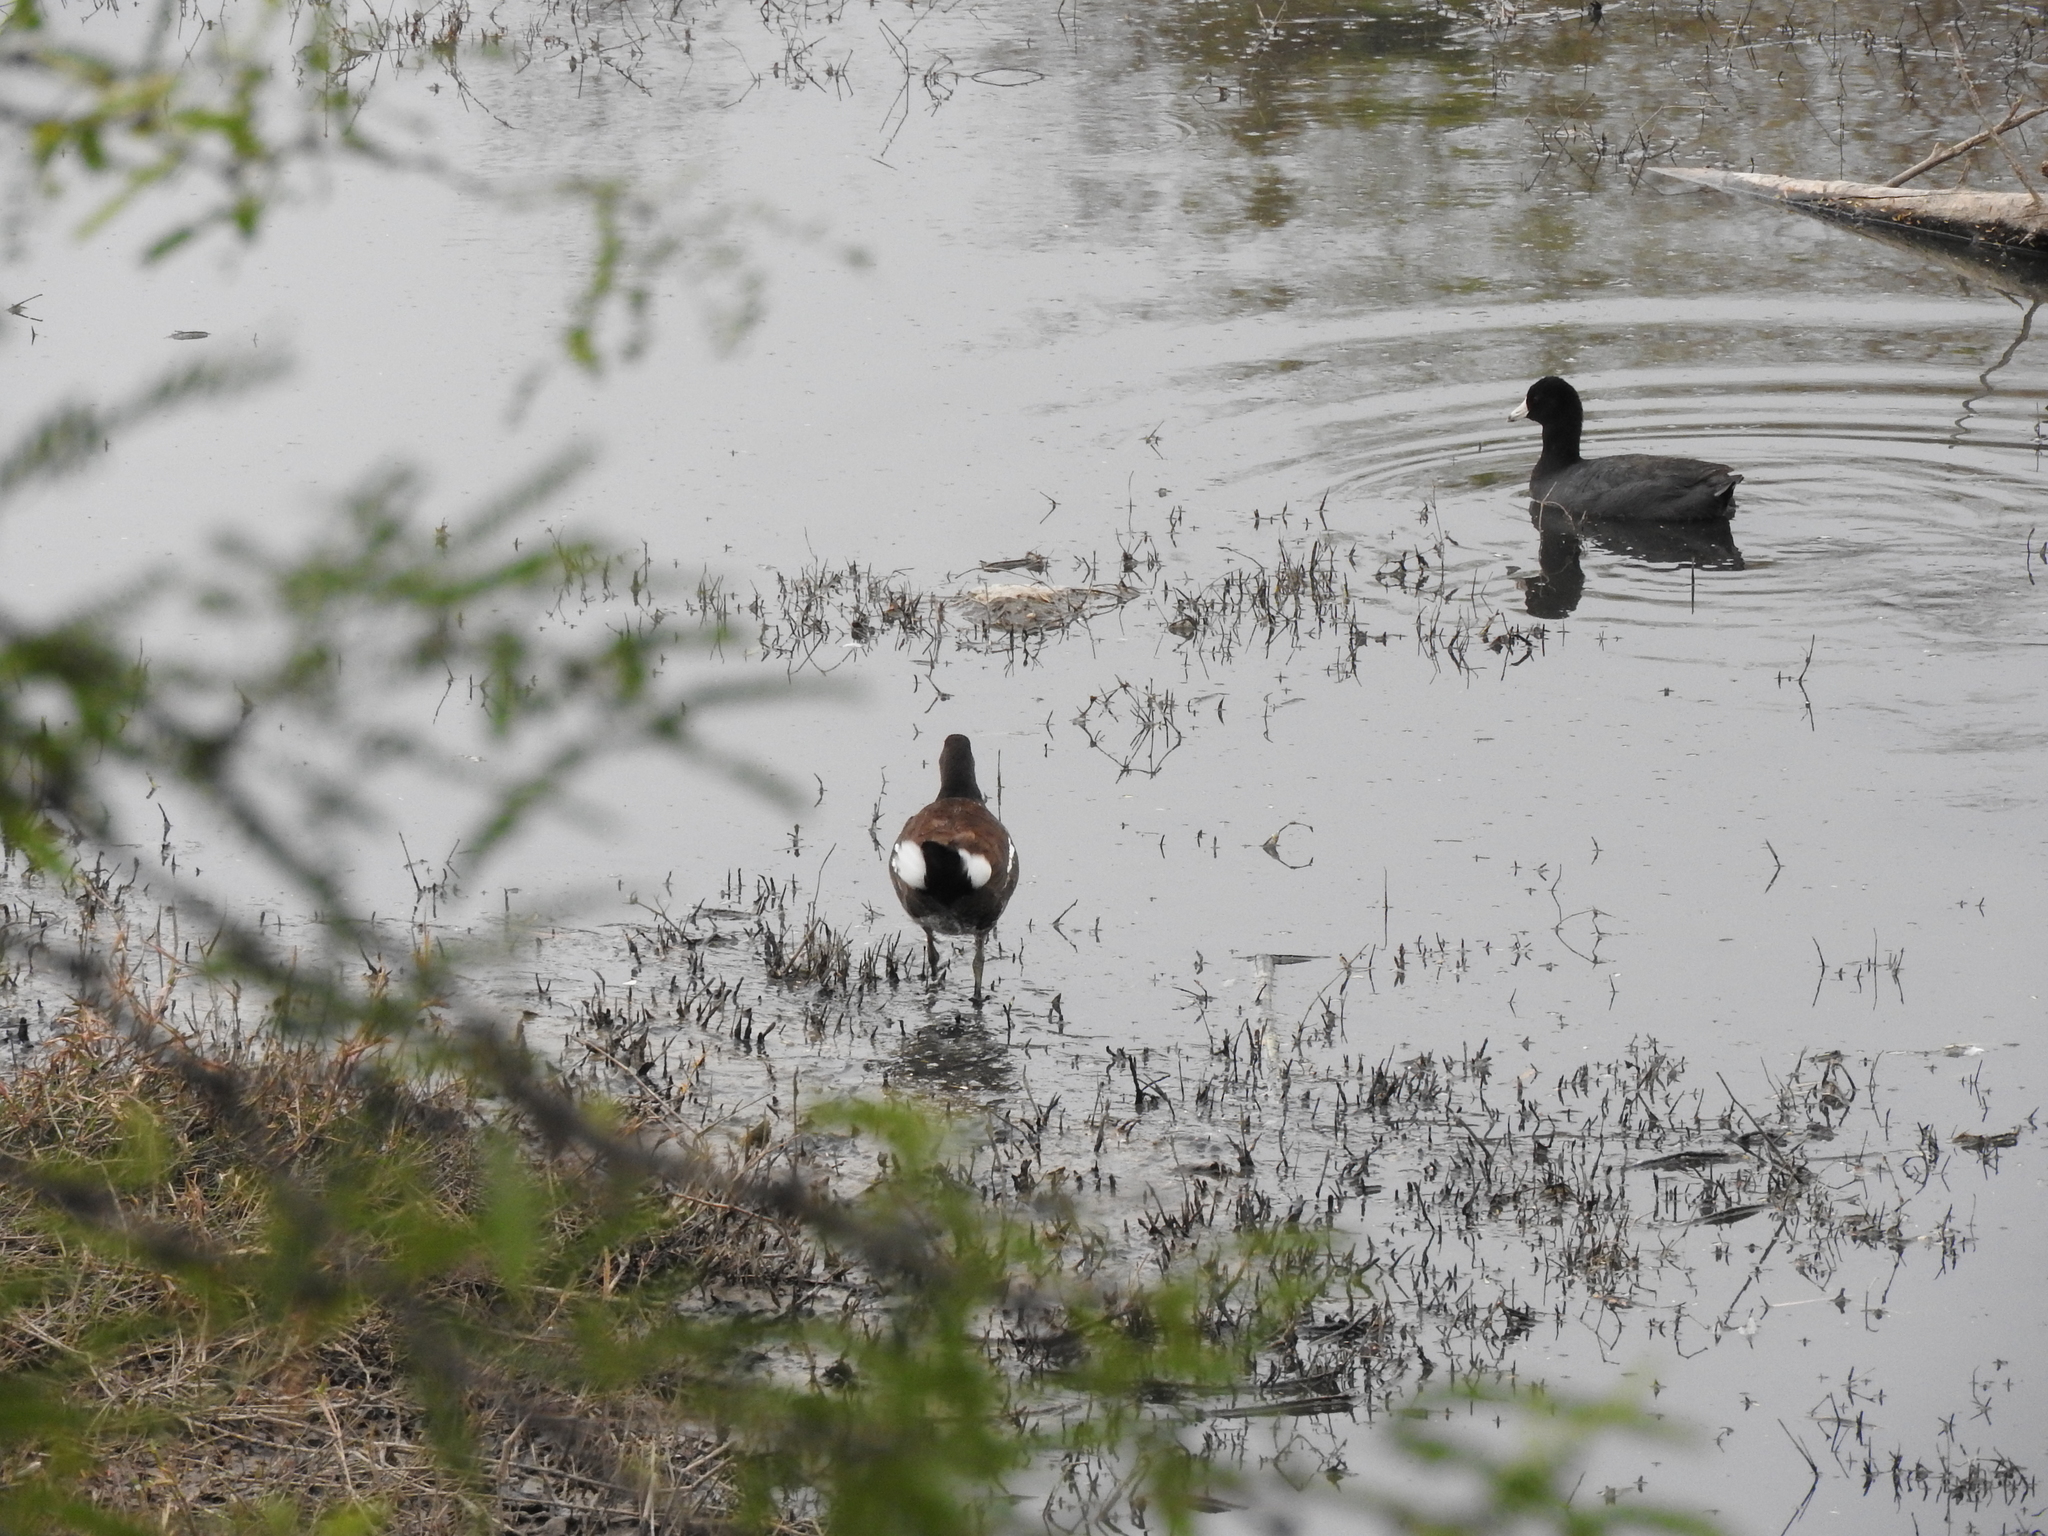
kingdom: Animalia
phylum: Chordata
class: Aves
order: Gruiformes
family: Rallidae
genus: Gallinula
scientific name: Gallinula chloropus
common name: Common moorhen
